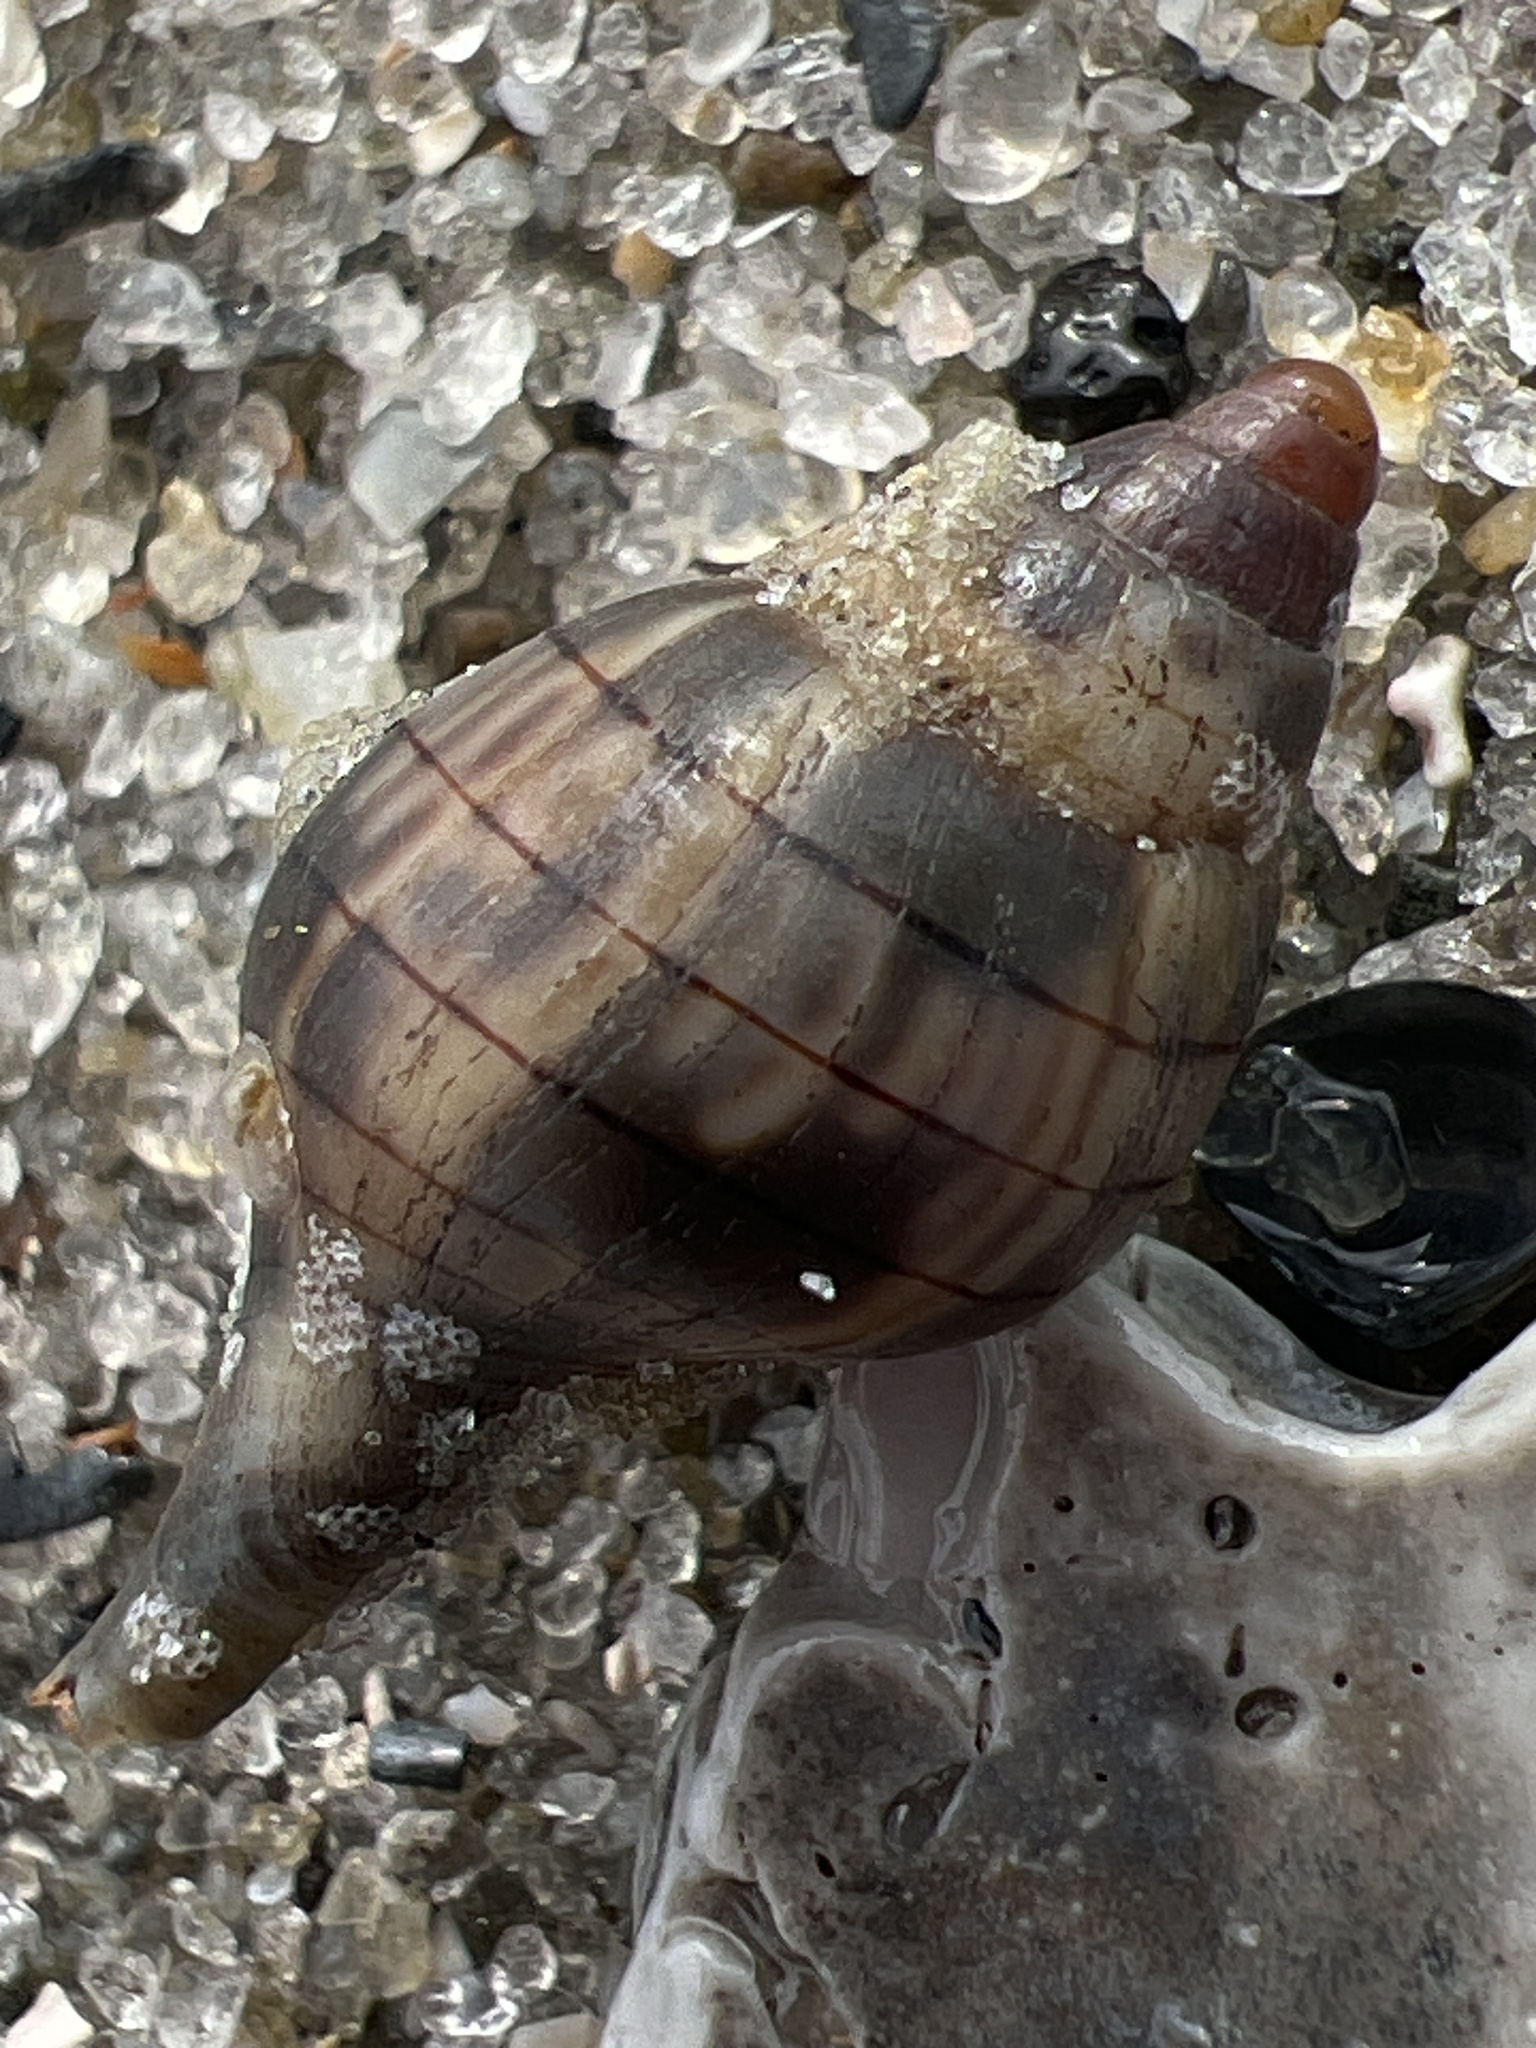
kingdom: Animalia
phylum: Mollusca
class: Gastropoda
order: Neogastropoda
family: Fasciolariidae
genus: Cinctura
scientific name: Cinctura hunteria
